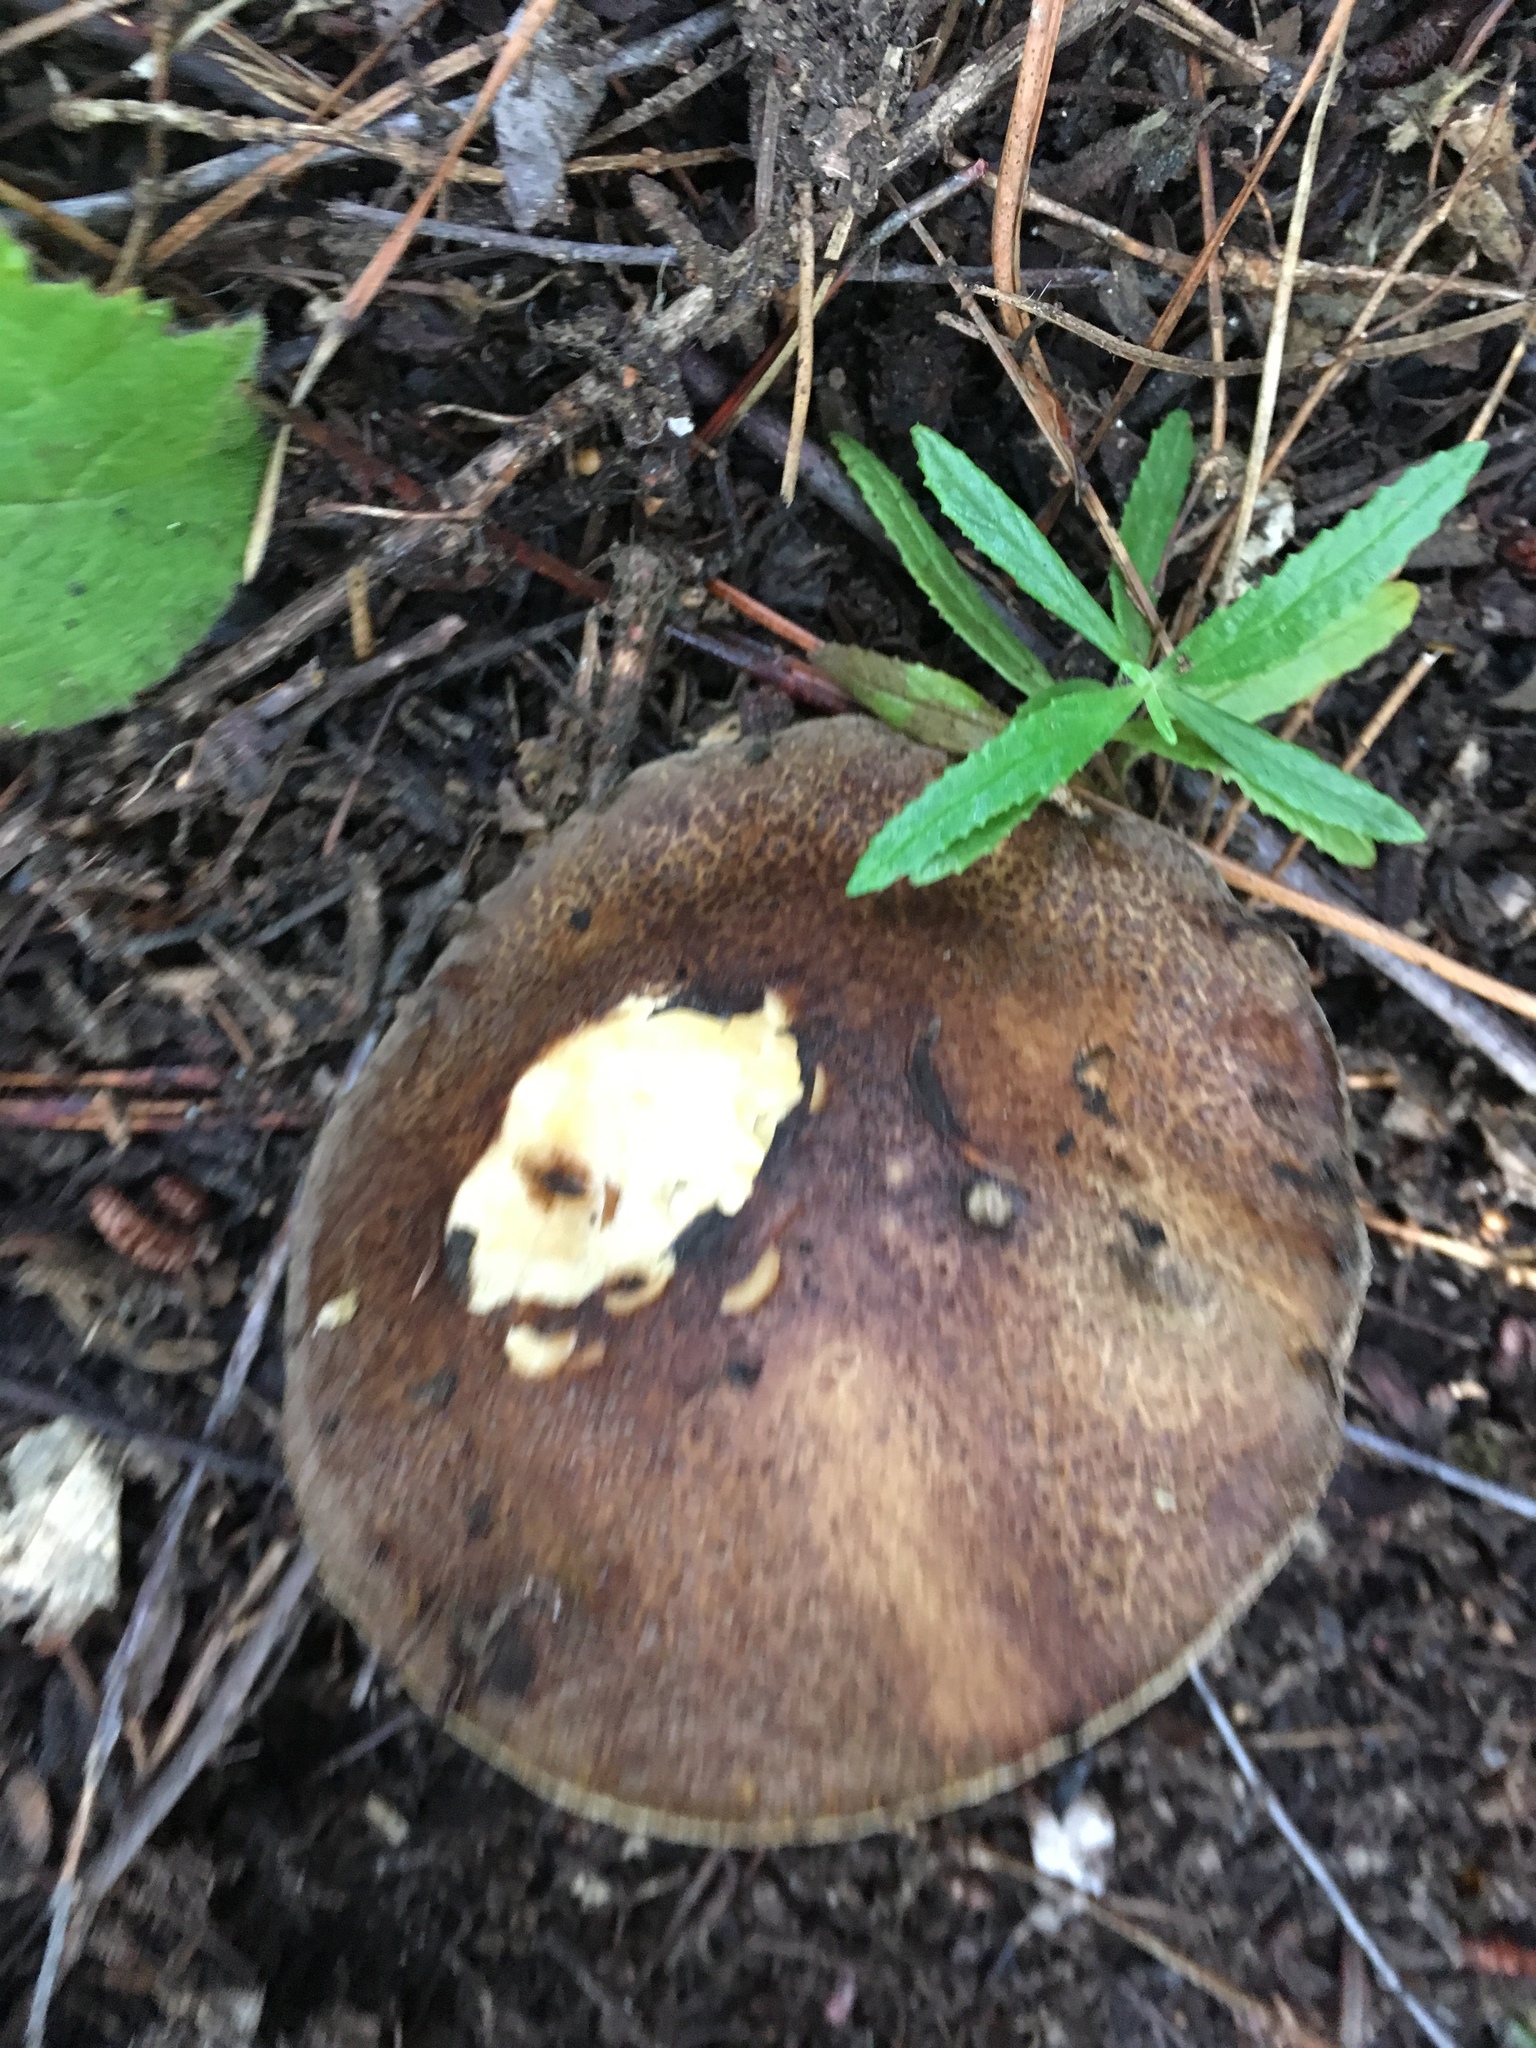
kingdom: Fungi
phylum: Basidiomycota
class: Agaricomycetes
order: Boletales
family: Suillaceae
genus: Suillus
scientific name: Suillus fuscotomentosus
